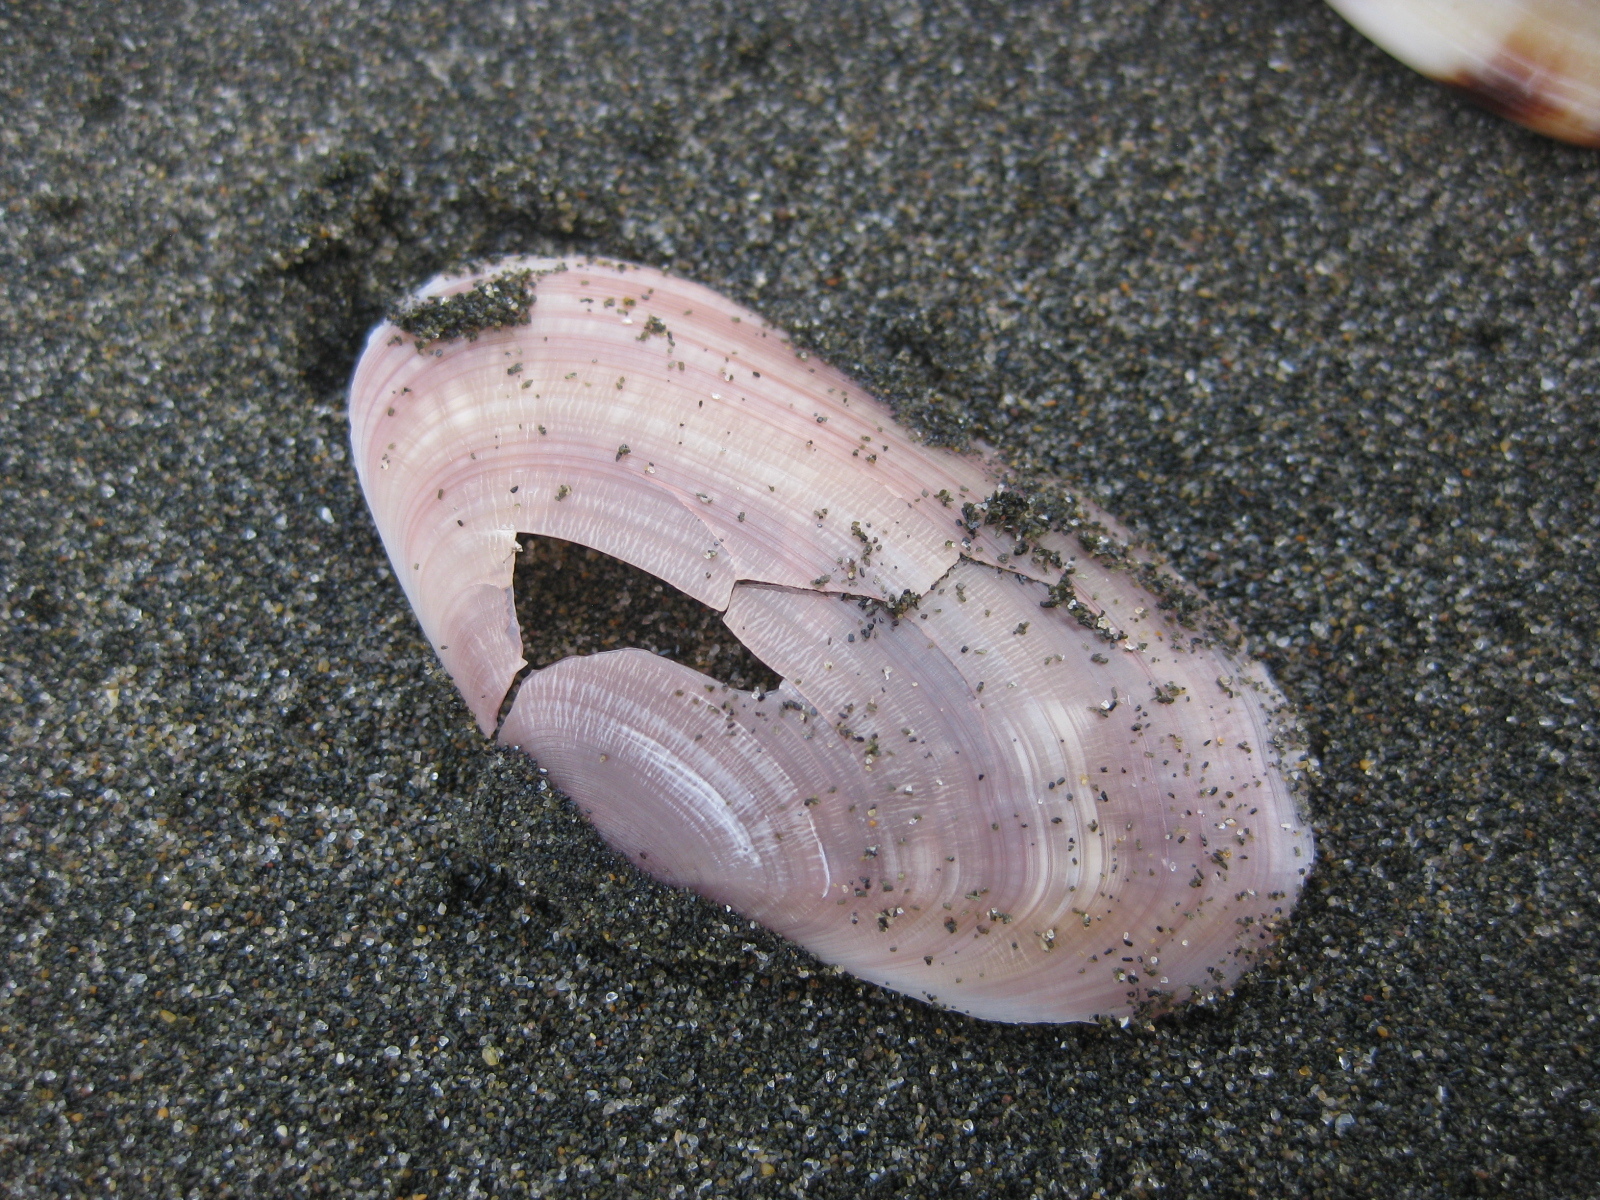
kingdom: Animalia
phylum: Mollusca
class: Bivalvia
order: Cardiida
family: Psammobiidae
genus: Gari
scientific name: Gari lineolata
